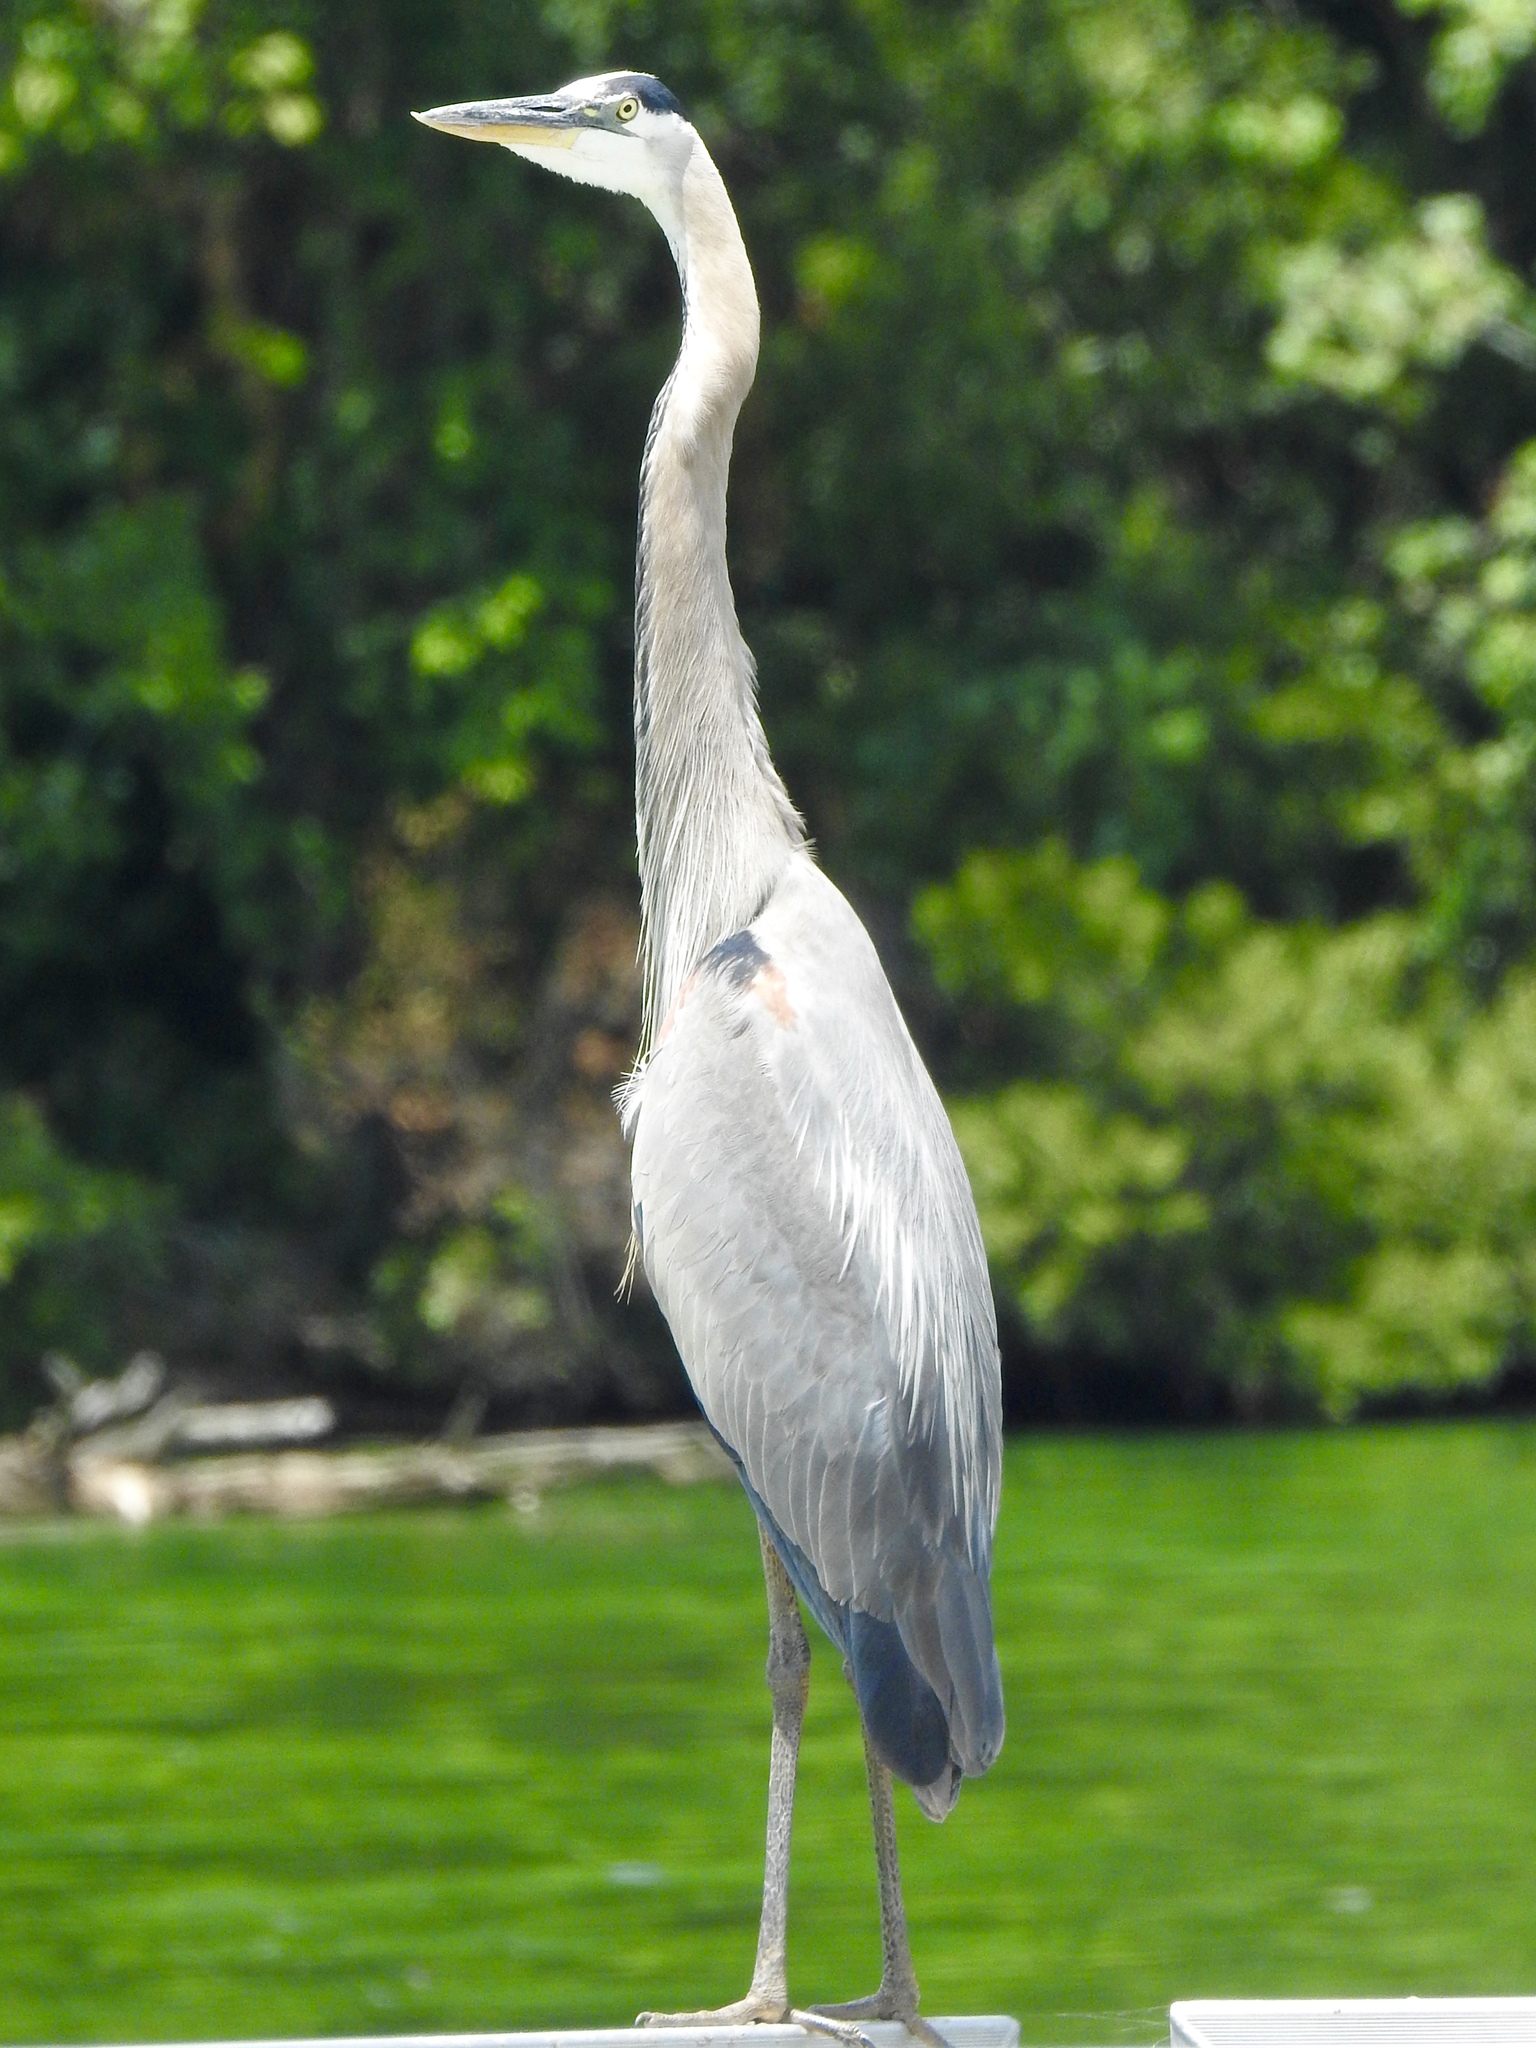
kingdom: Animalia
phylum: Chordata
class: Aves
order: Pelecaniformes
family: Ardeidae
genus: Ardea
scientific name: Ardea herodias
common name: Great blue heron
